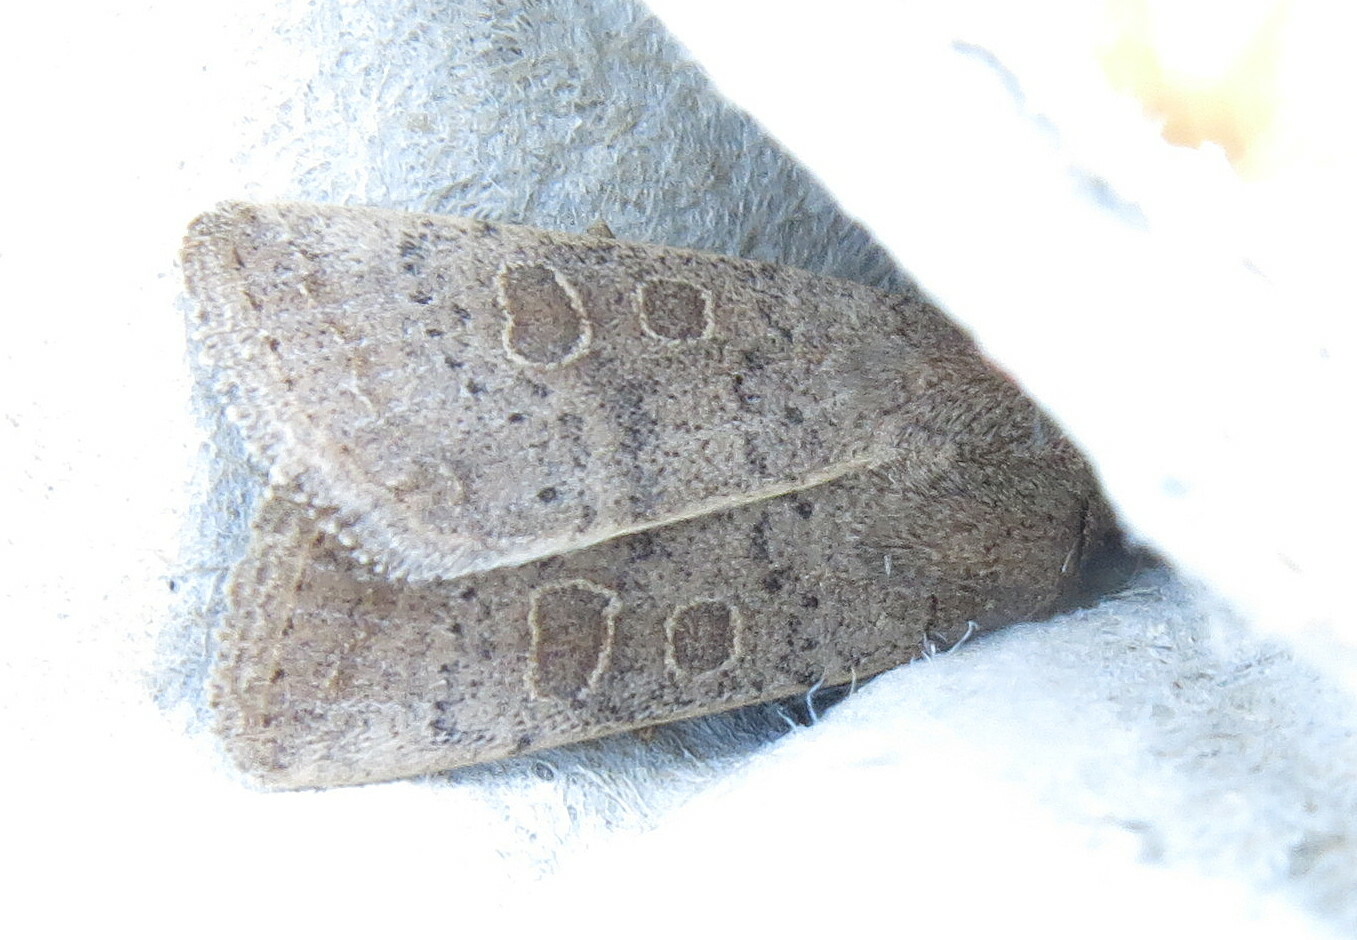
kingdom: Animalia
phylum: Arthropoda
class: Insecta
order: Lepidoptera
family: Noctuidae
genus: Hoplodrina
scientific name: Hoplodrina ambigua
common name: Vine's rustic
